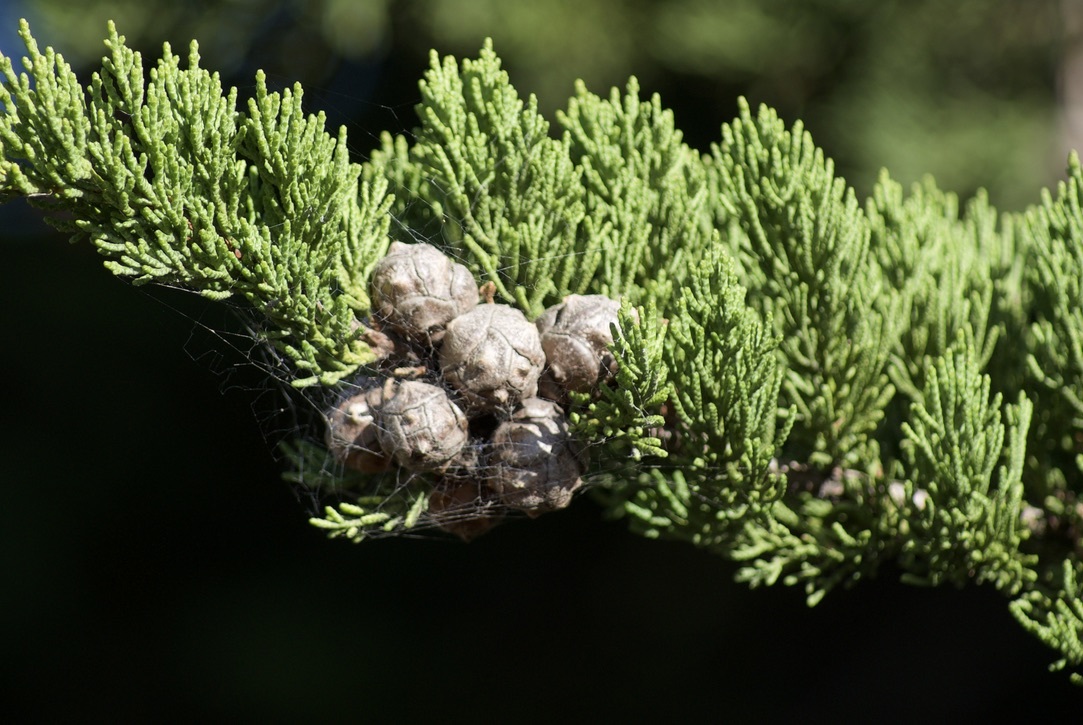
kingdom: Plantae
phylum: Tracheophyta
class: Pinopsida
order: Pinales
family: Cupressaceae
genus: Cupressus
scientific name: Cupressus macrocarpa
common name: Monterey cypress
